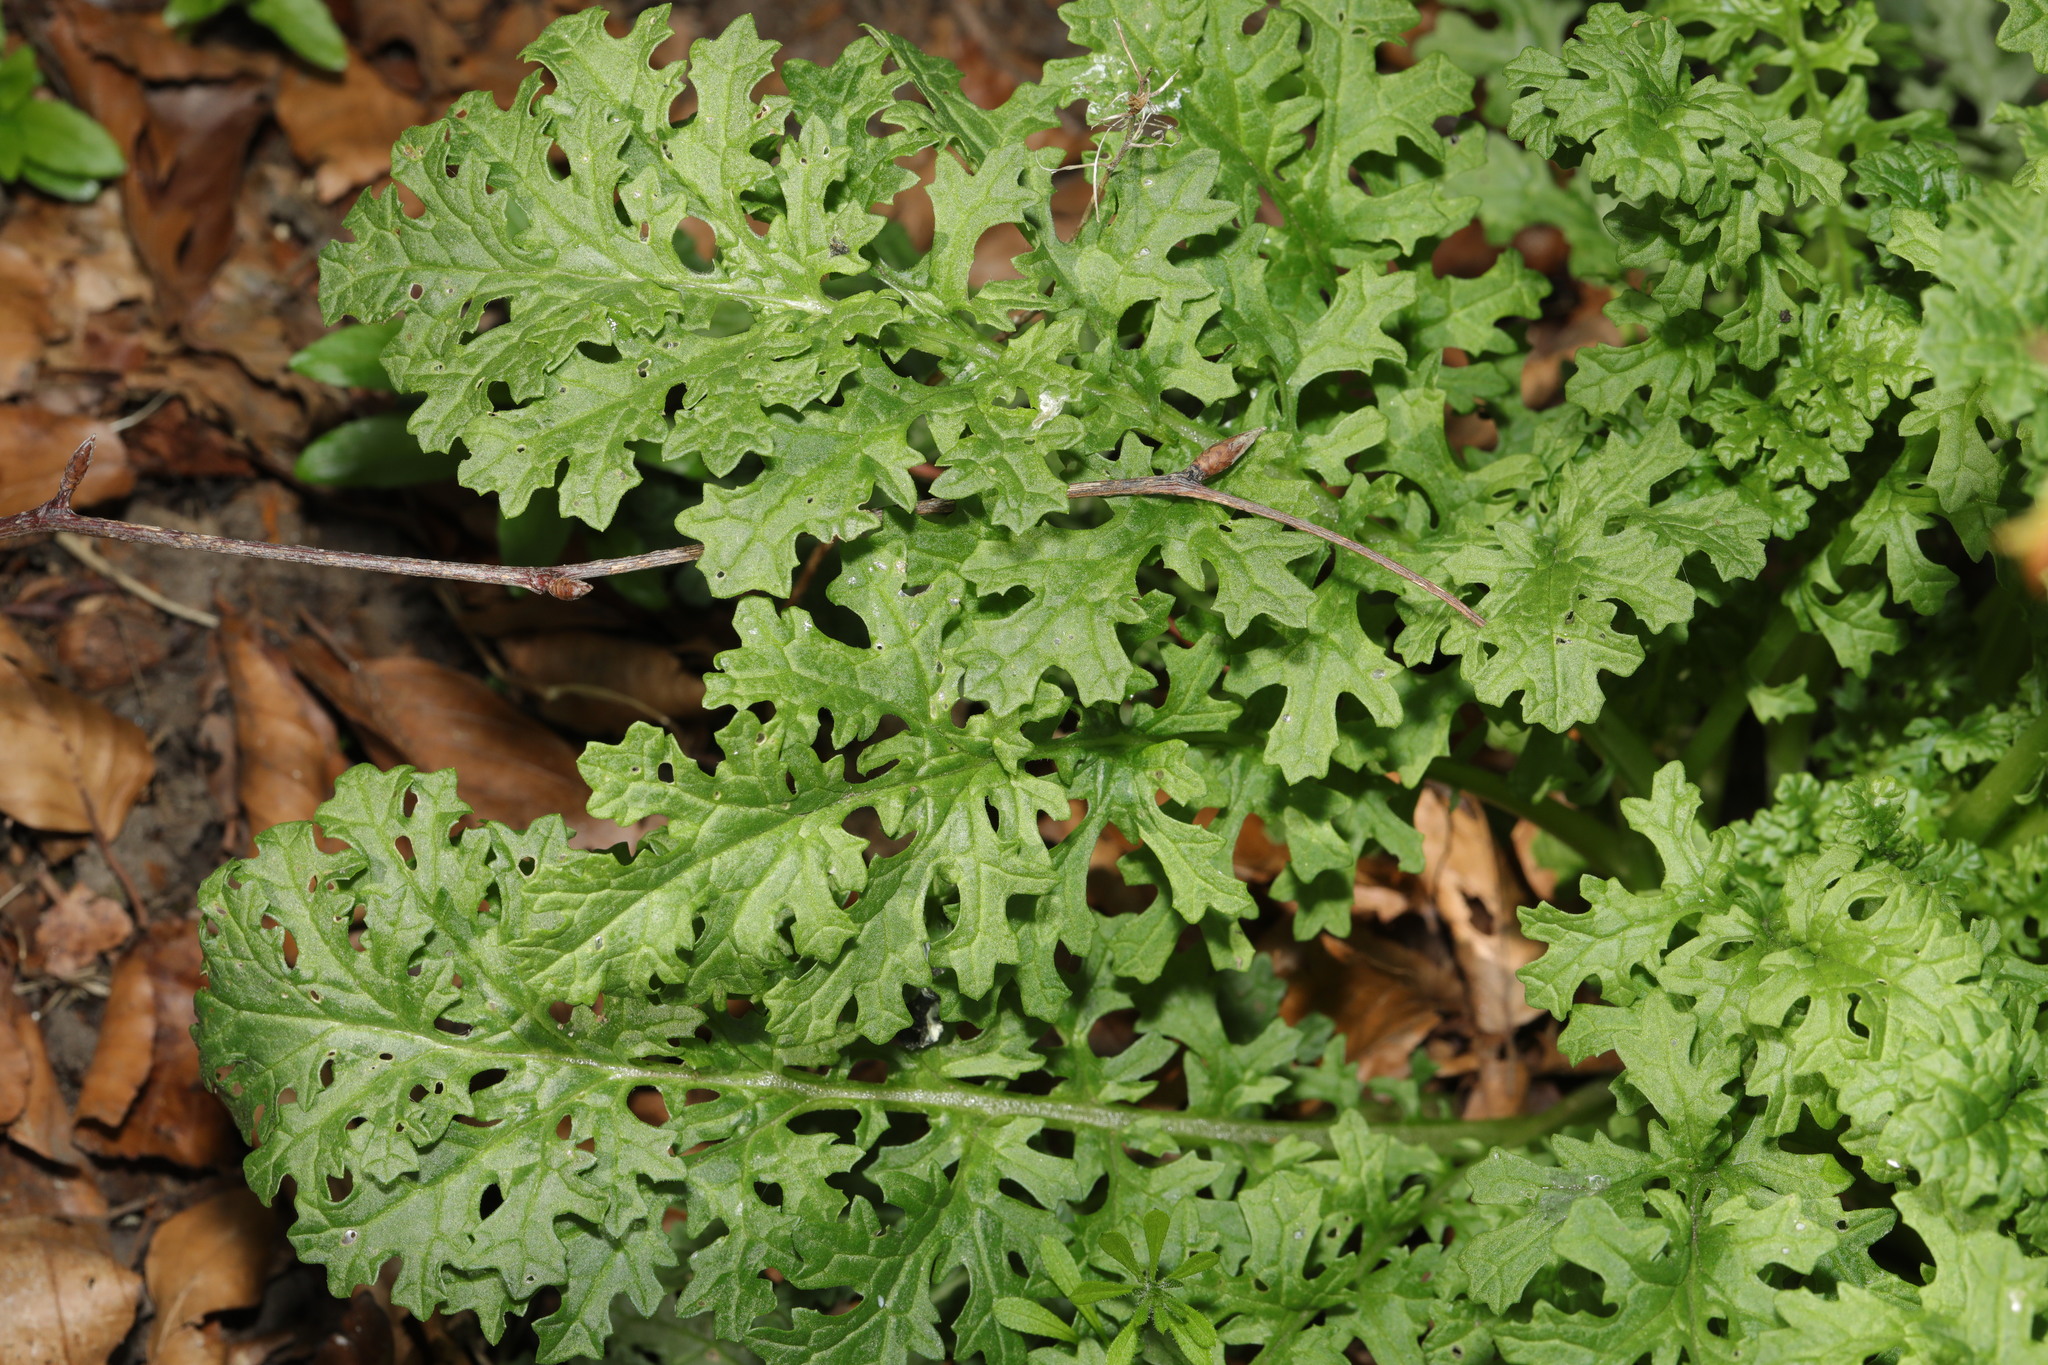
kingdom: Plantae
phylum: Tracheophyta
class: Magnoliopsida
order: Asterales
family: Asteraceae
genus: Jacobaea
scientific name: Jacobaea vulgaris
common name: Stinking willie
